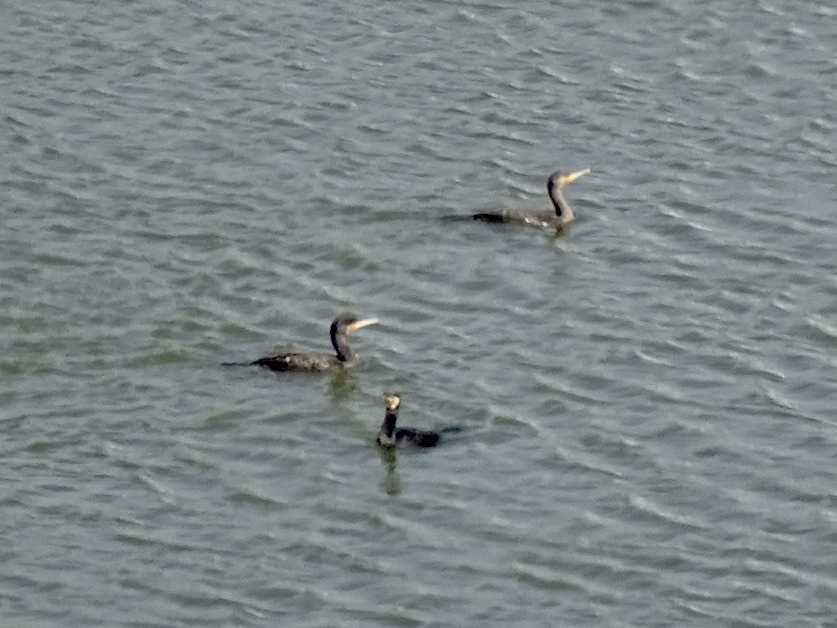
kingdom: Animalia
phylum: Chordata
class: Aves
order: Suliformes
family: Phalacrocoracidae
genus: Phalacrocorax
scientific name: Phalacrocorax carbo
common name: Great cormorant
